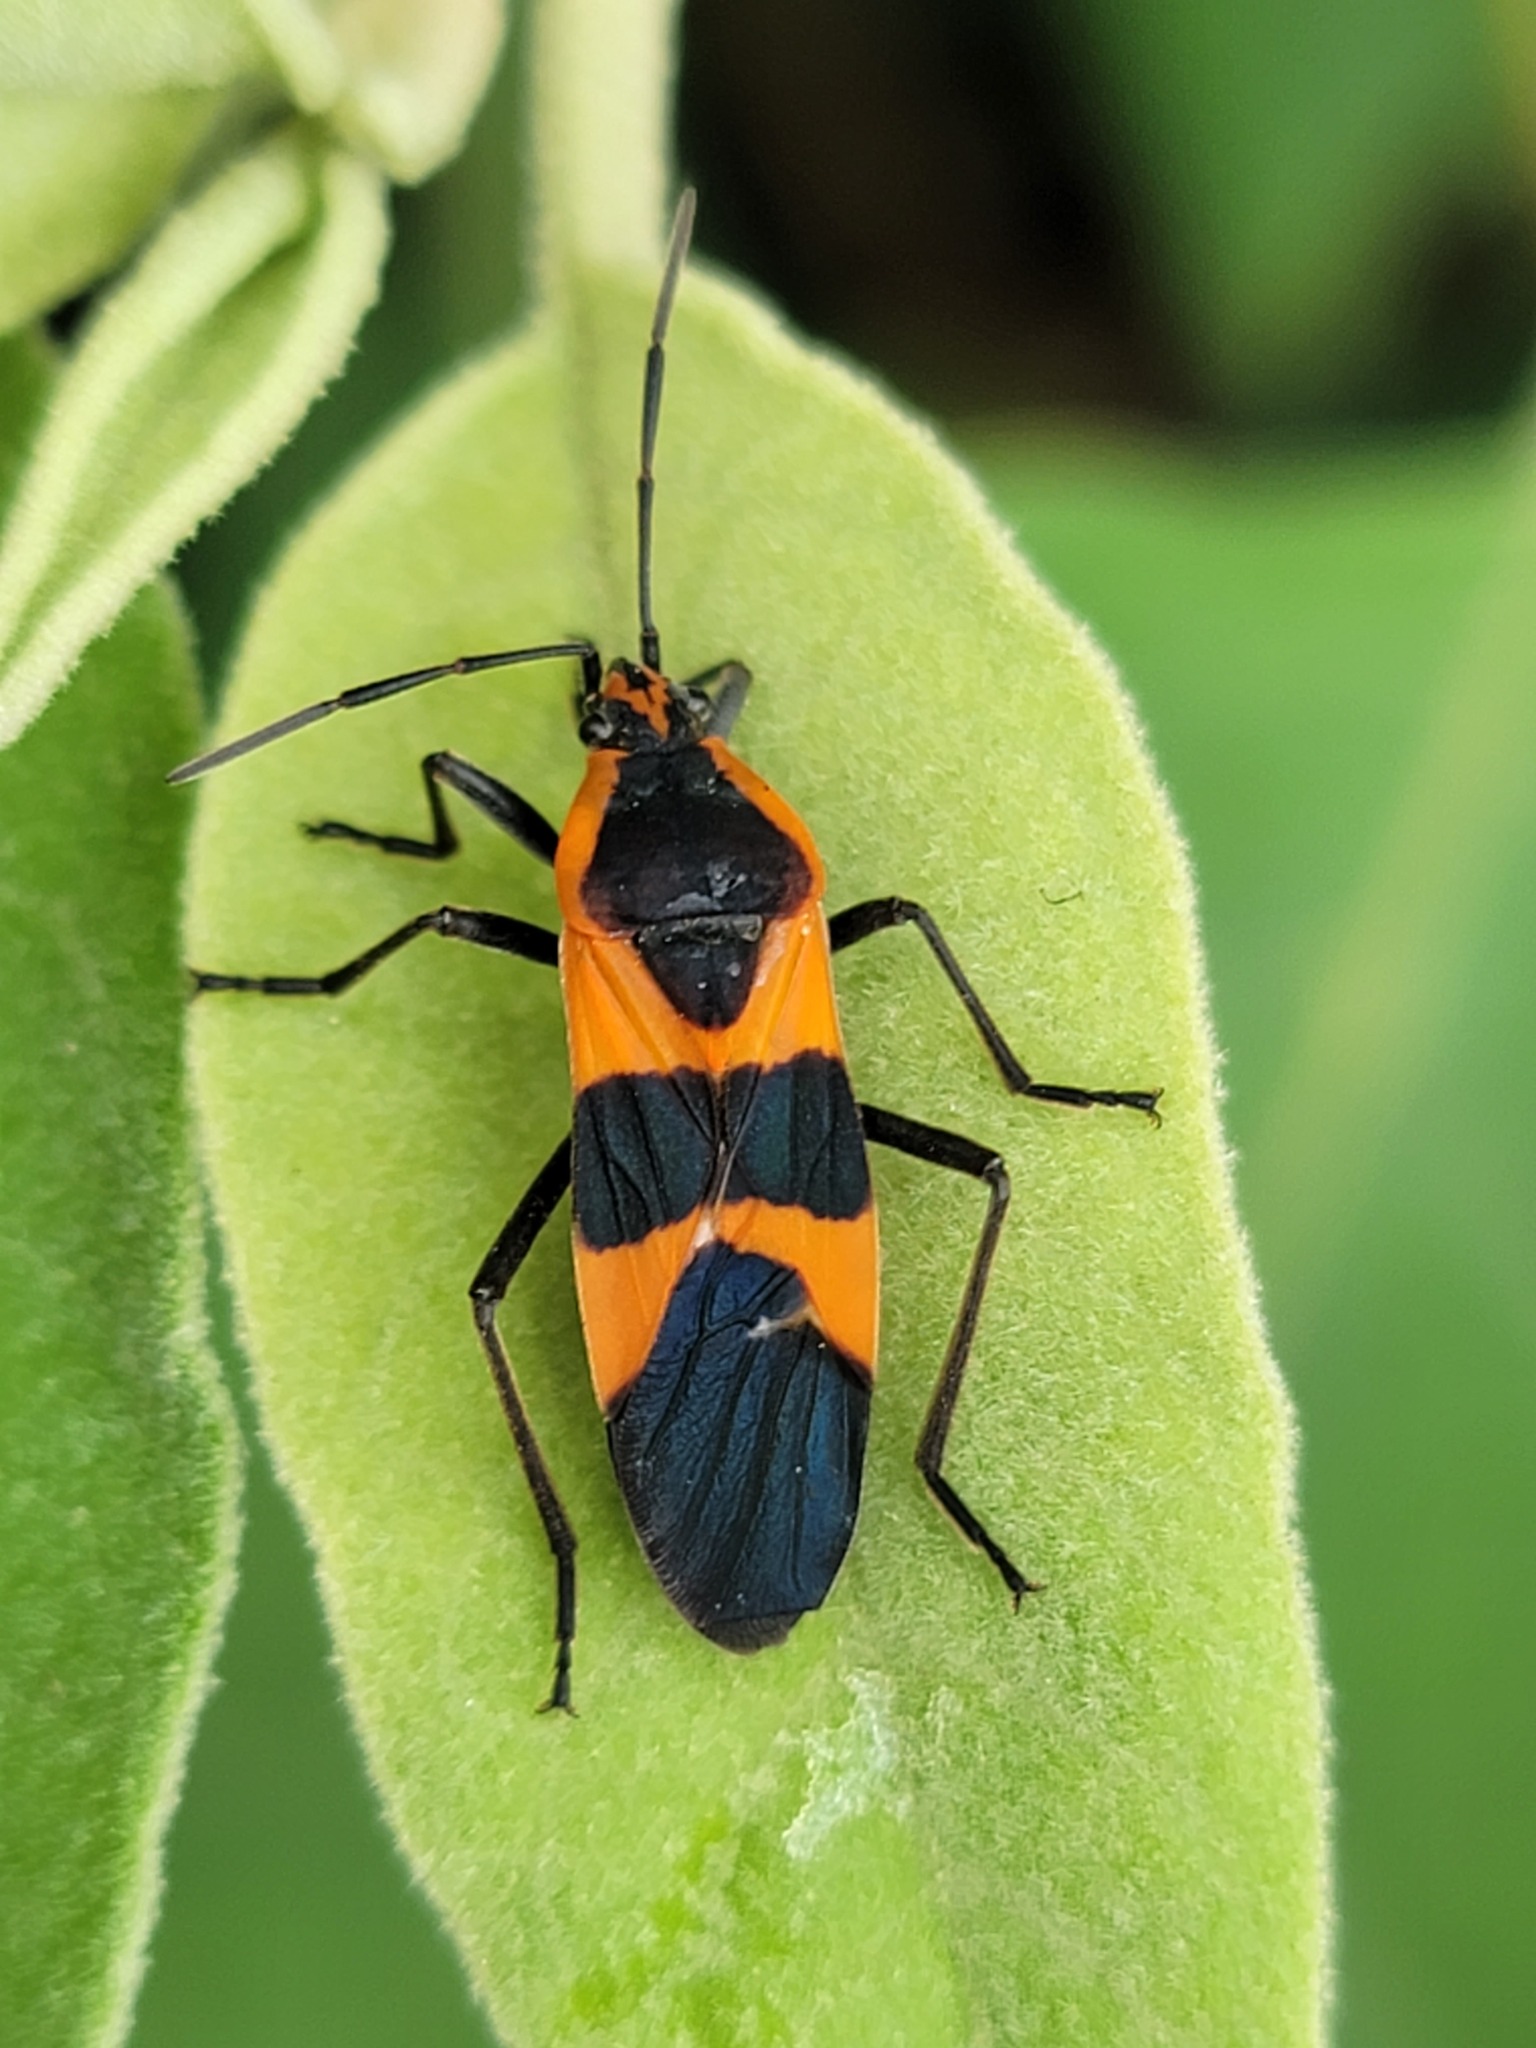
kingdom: Animalia
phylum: Arthropoda
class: Insecta
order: Hemiptera
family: Lygaeidae
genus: Oncopeltus
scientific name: Oncopeltus fasciatus
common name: Large milkweed bug
